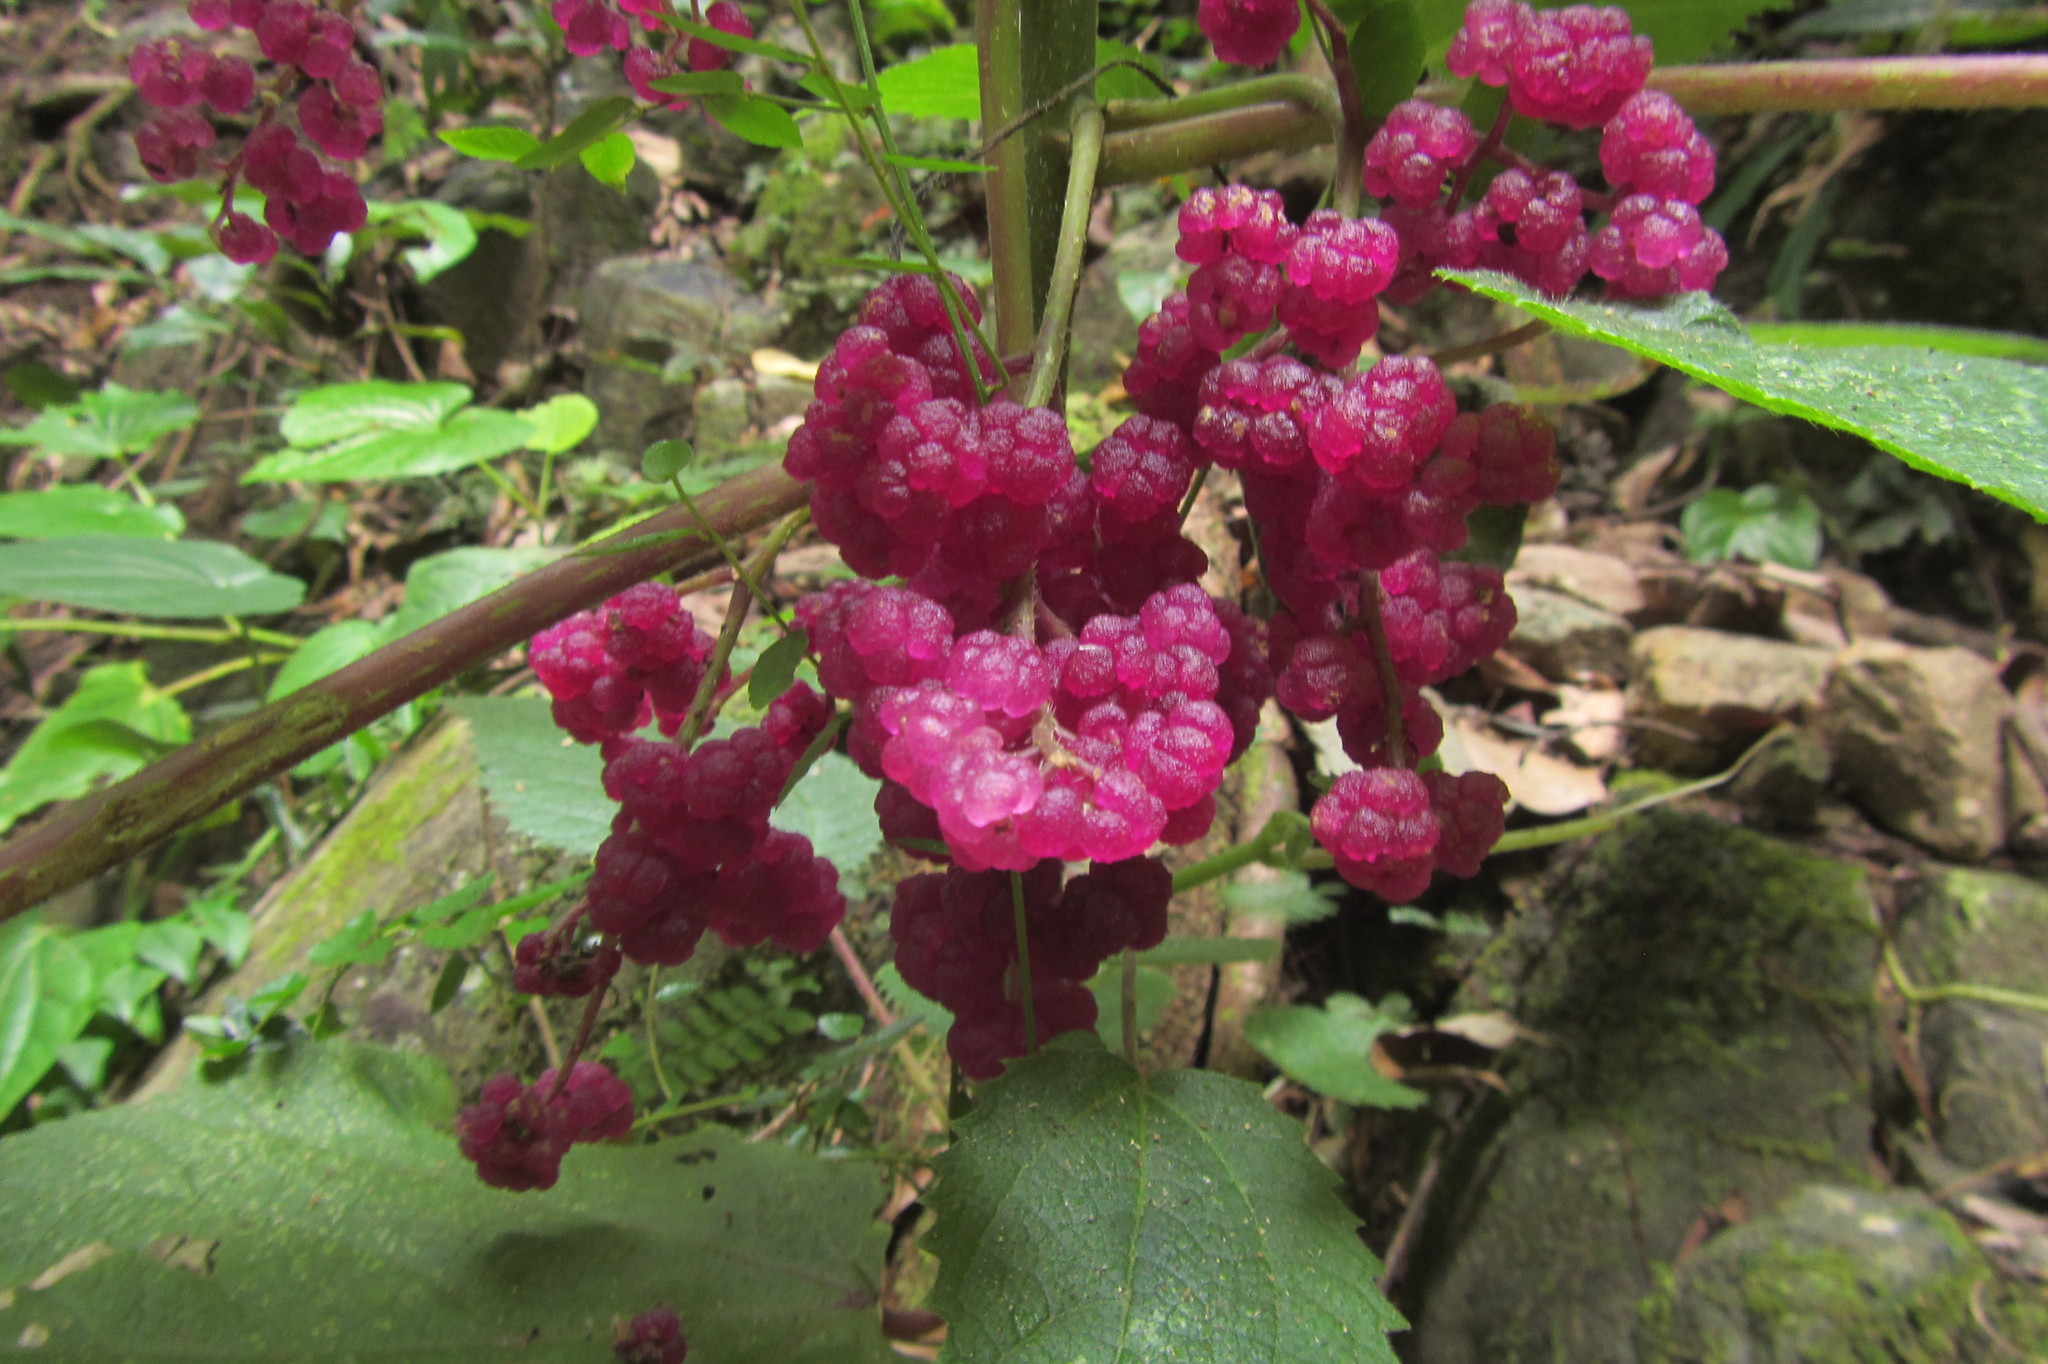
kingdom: Plantae
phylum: Tracheophyta
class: Magnoliopsida
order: Rosales
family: Urticaceae
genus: Dendrocnide
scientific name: Dendrocnide moroides
